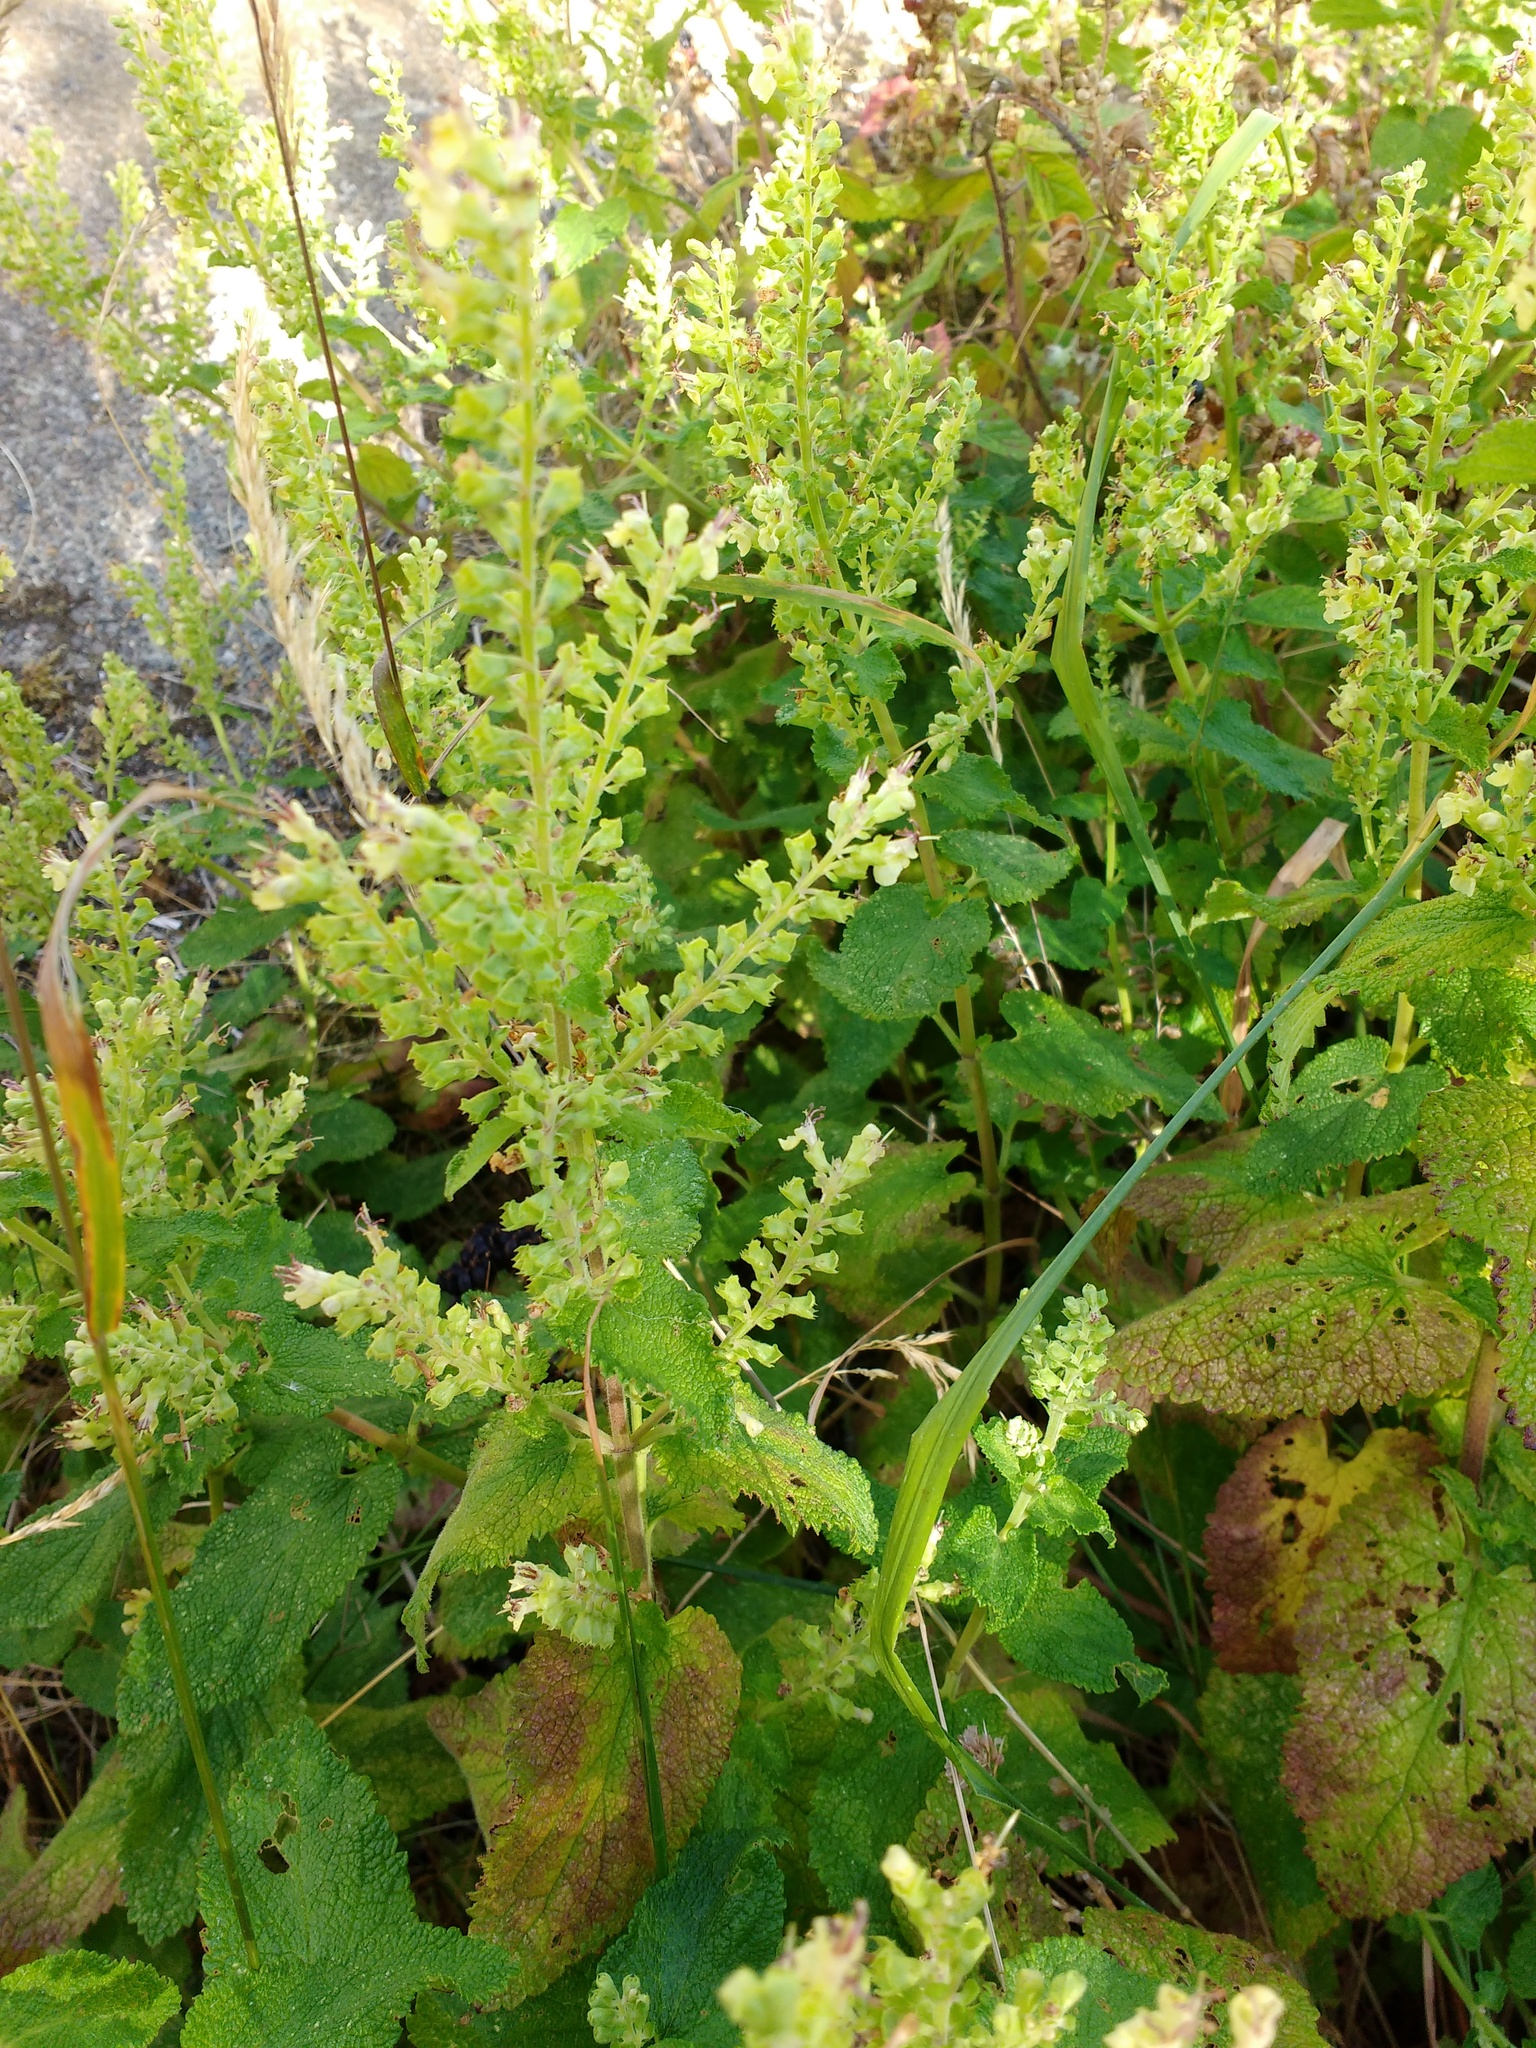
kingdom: Plantae
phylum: Tracheophyta
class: Magnoliopsida
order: Lamiales
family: Lamiaceae
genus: Teucrium
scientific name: Teucrium scorodonia
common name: Woodland germander
